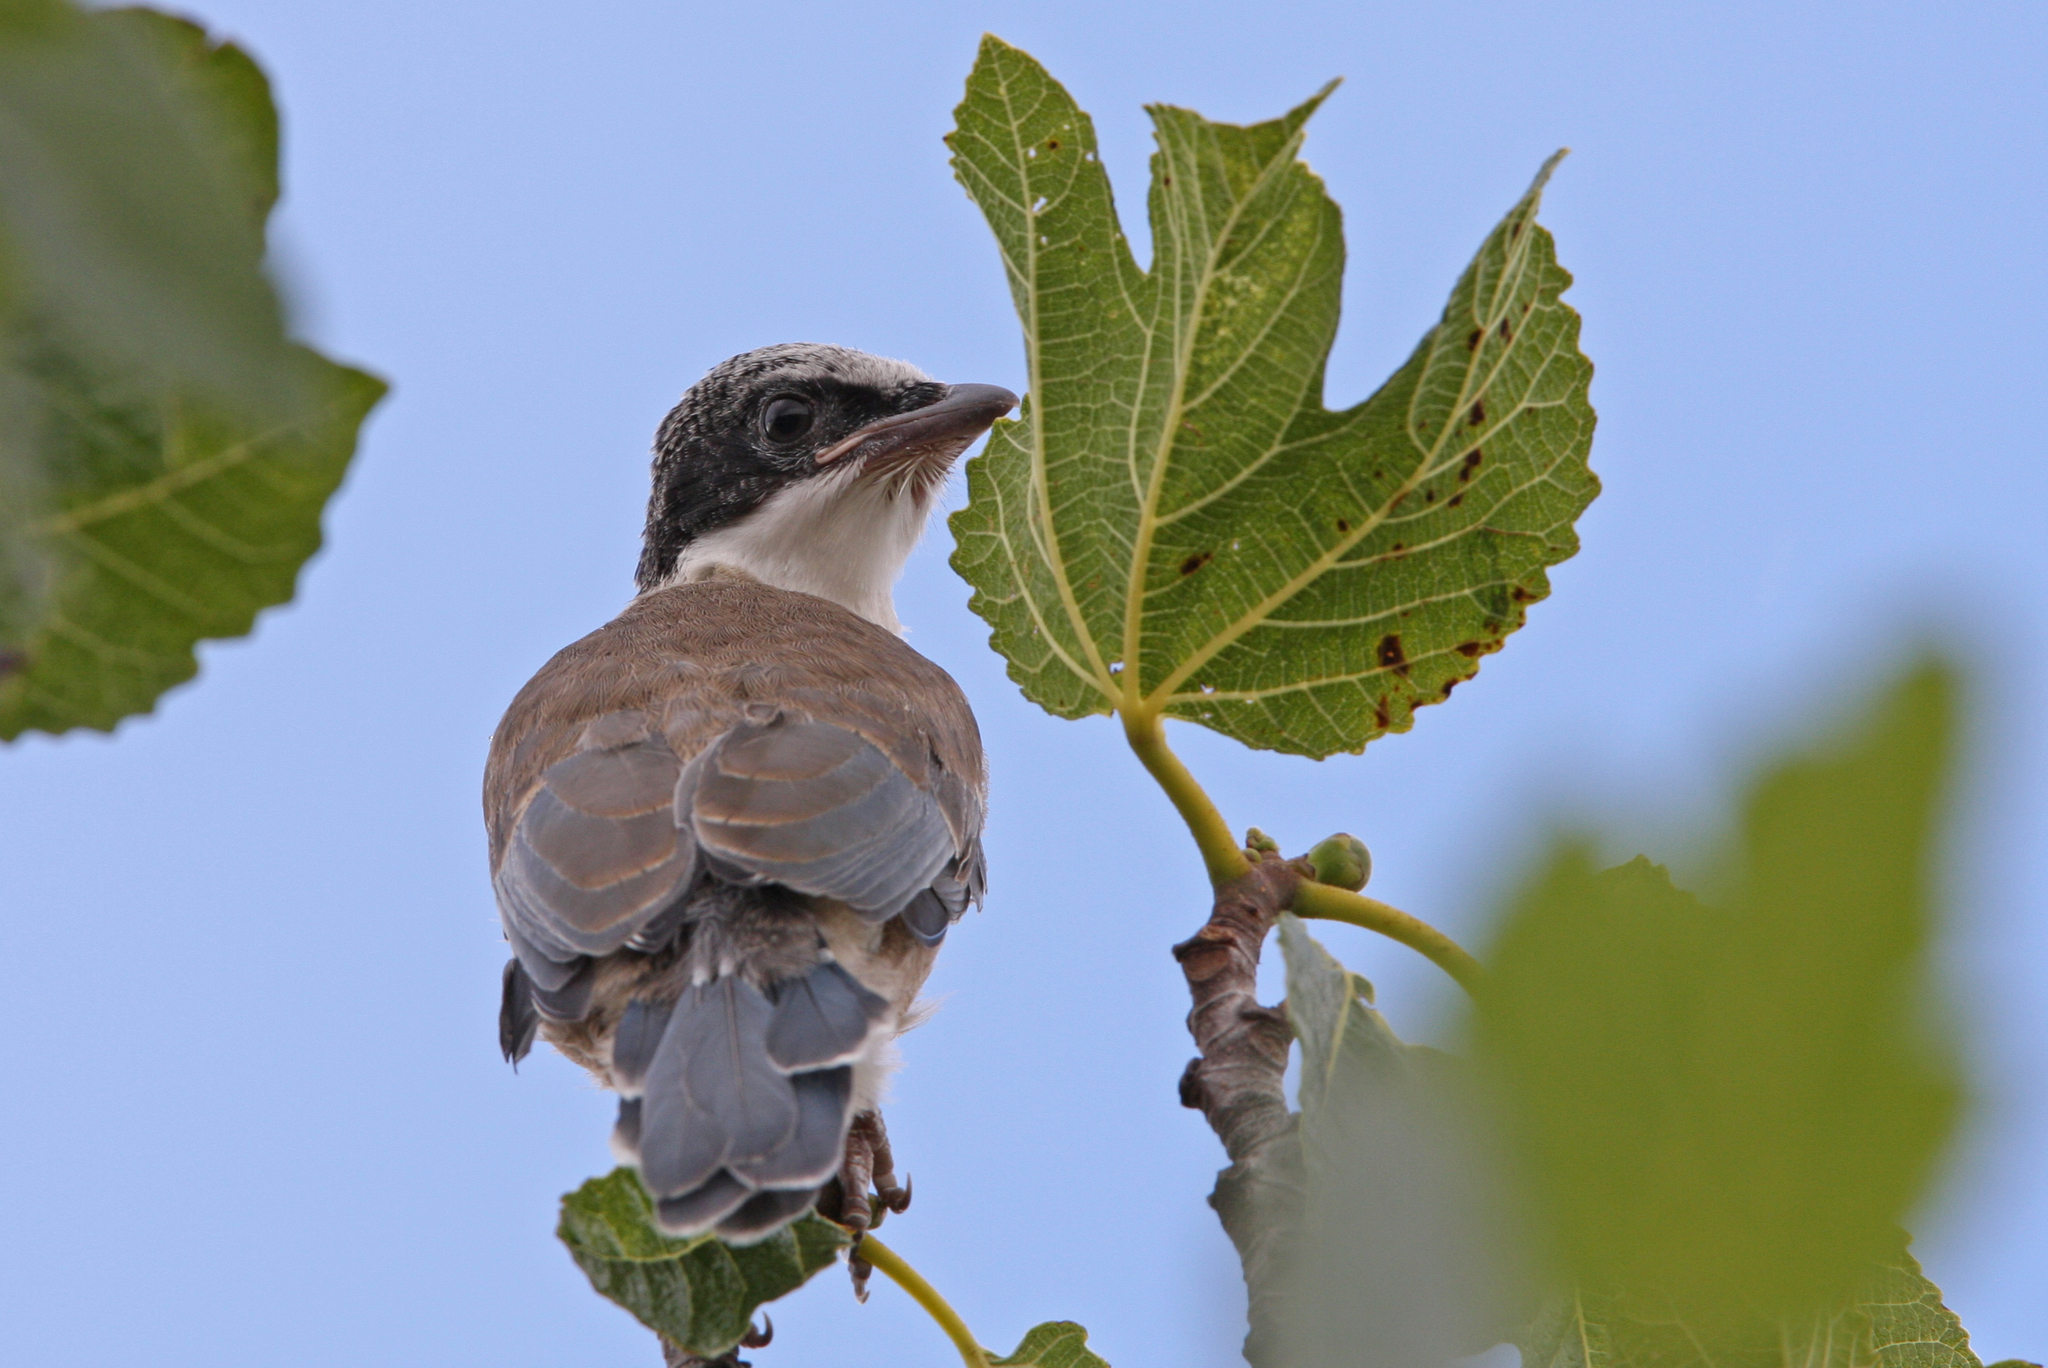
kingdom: Animalia
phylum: Chordata
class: Aves
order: Passeriformes
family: Corvidae
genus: Cyanopica
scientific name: Cyanopica cooki
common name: Iberian magpie
